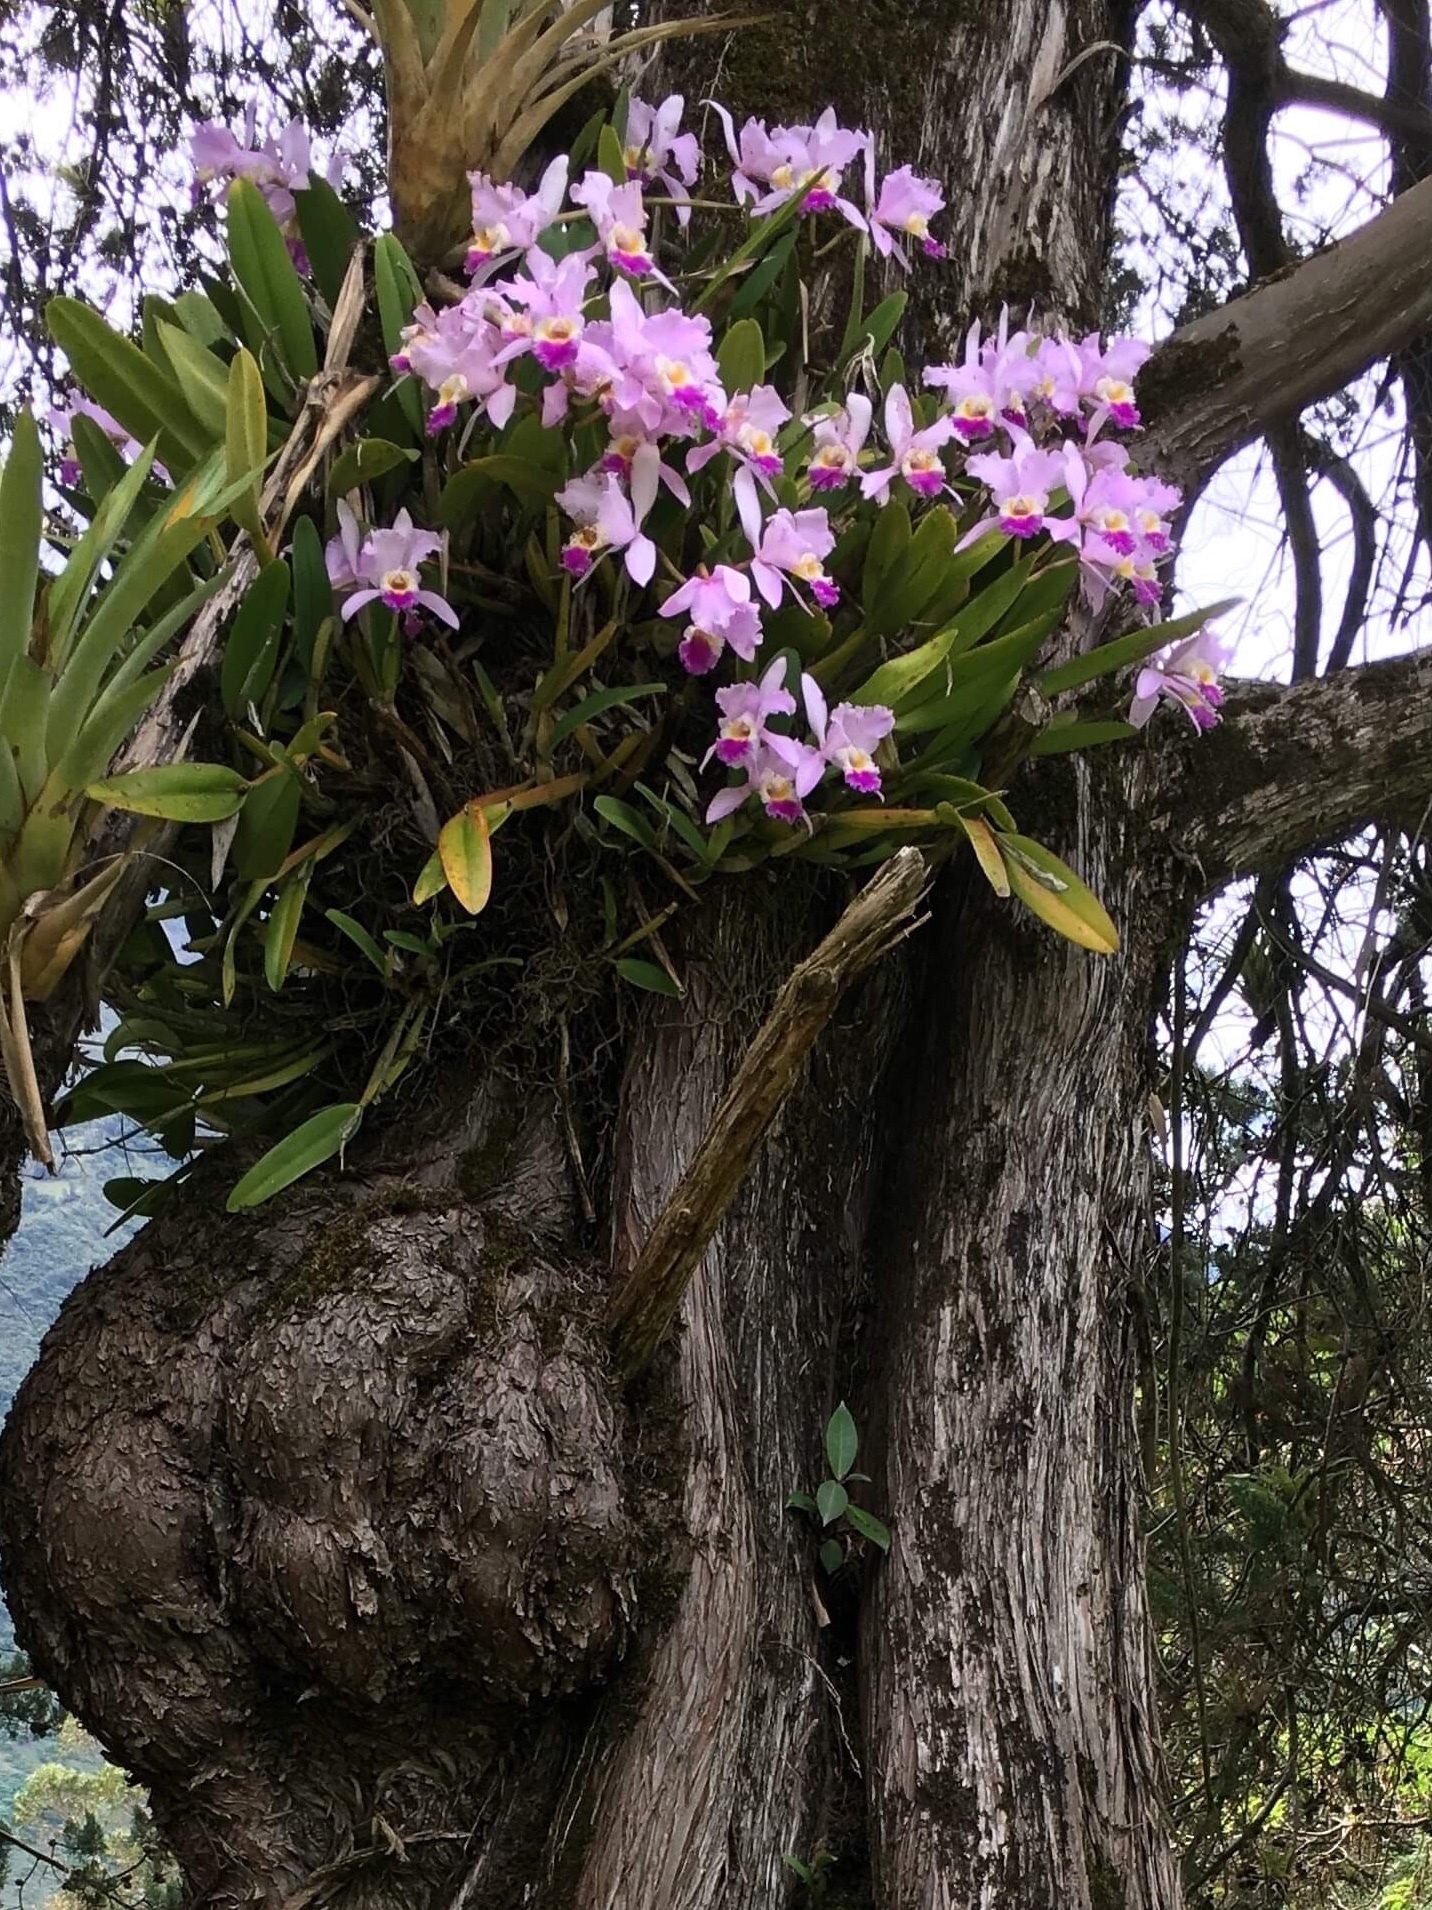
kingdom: Plantae
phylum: Tracheophyta
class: Liliopsida
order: Asparagales
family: Orchidaceae
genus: Cattleya
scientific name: Cattleya trianae
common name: Christmas orchid
